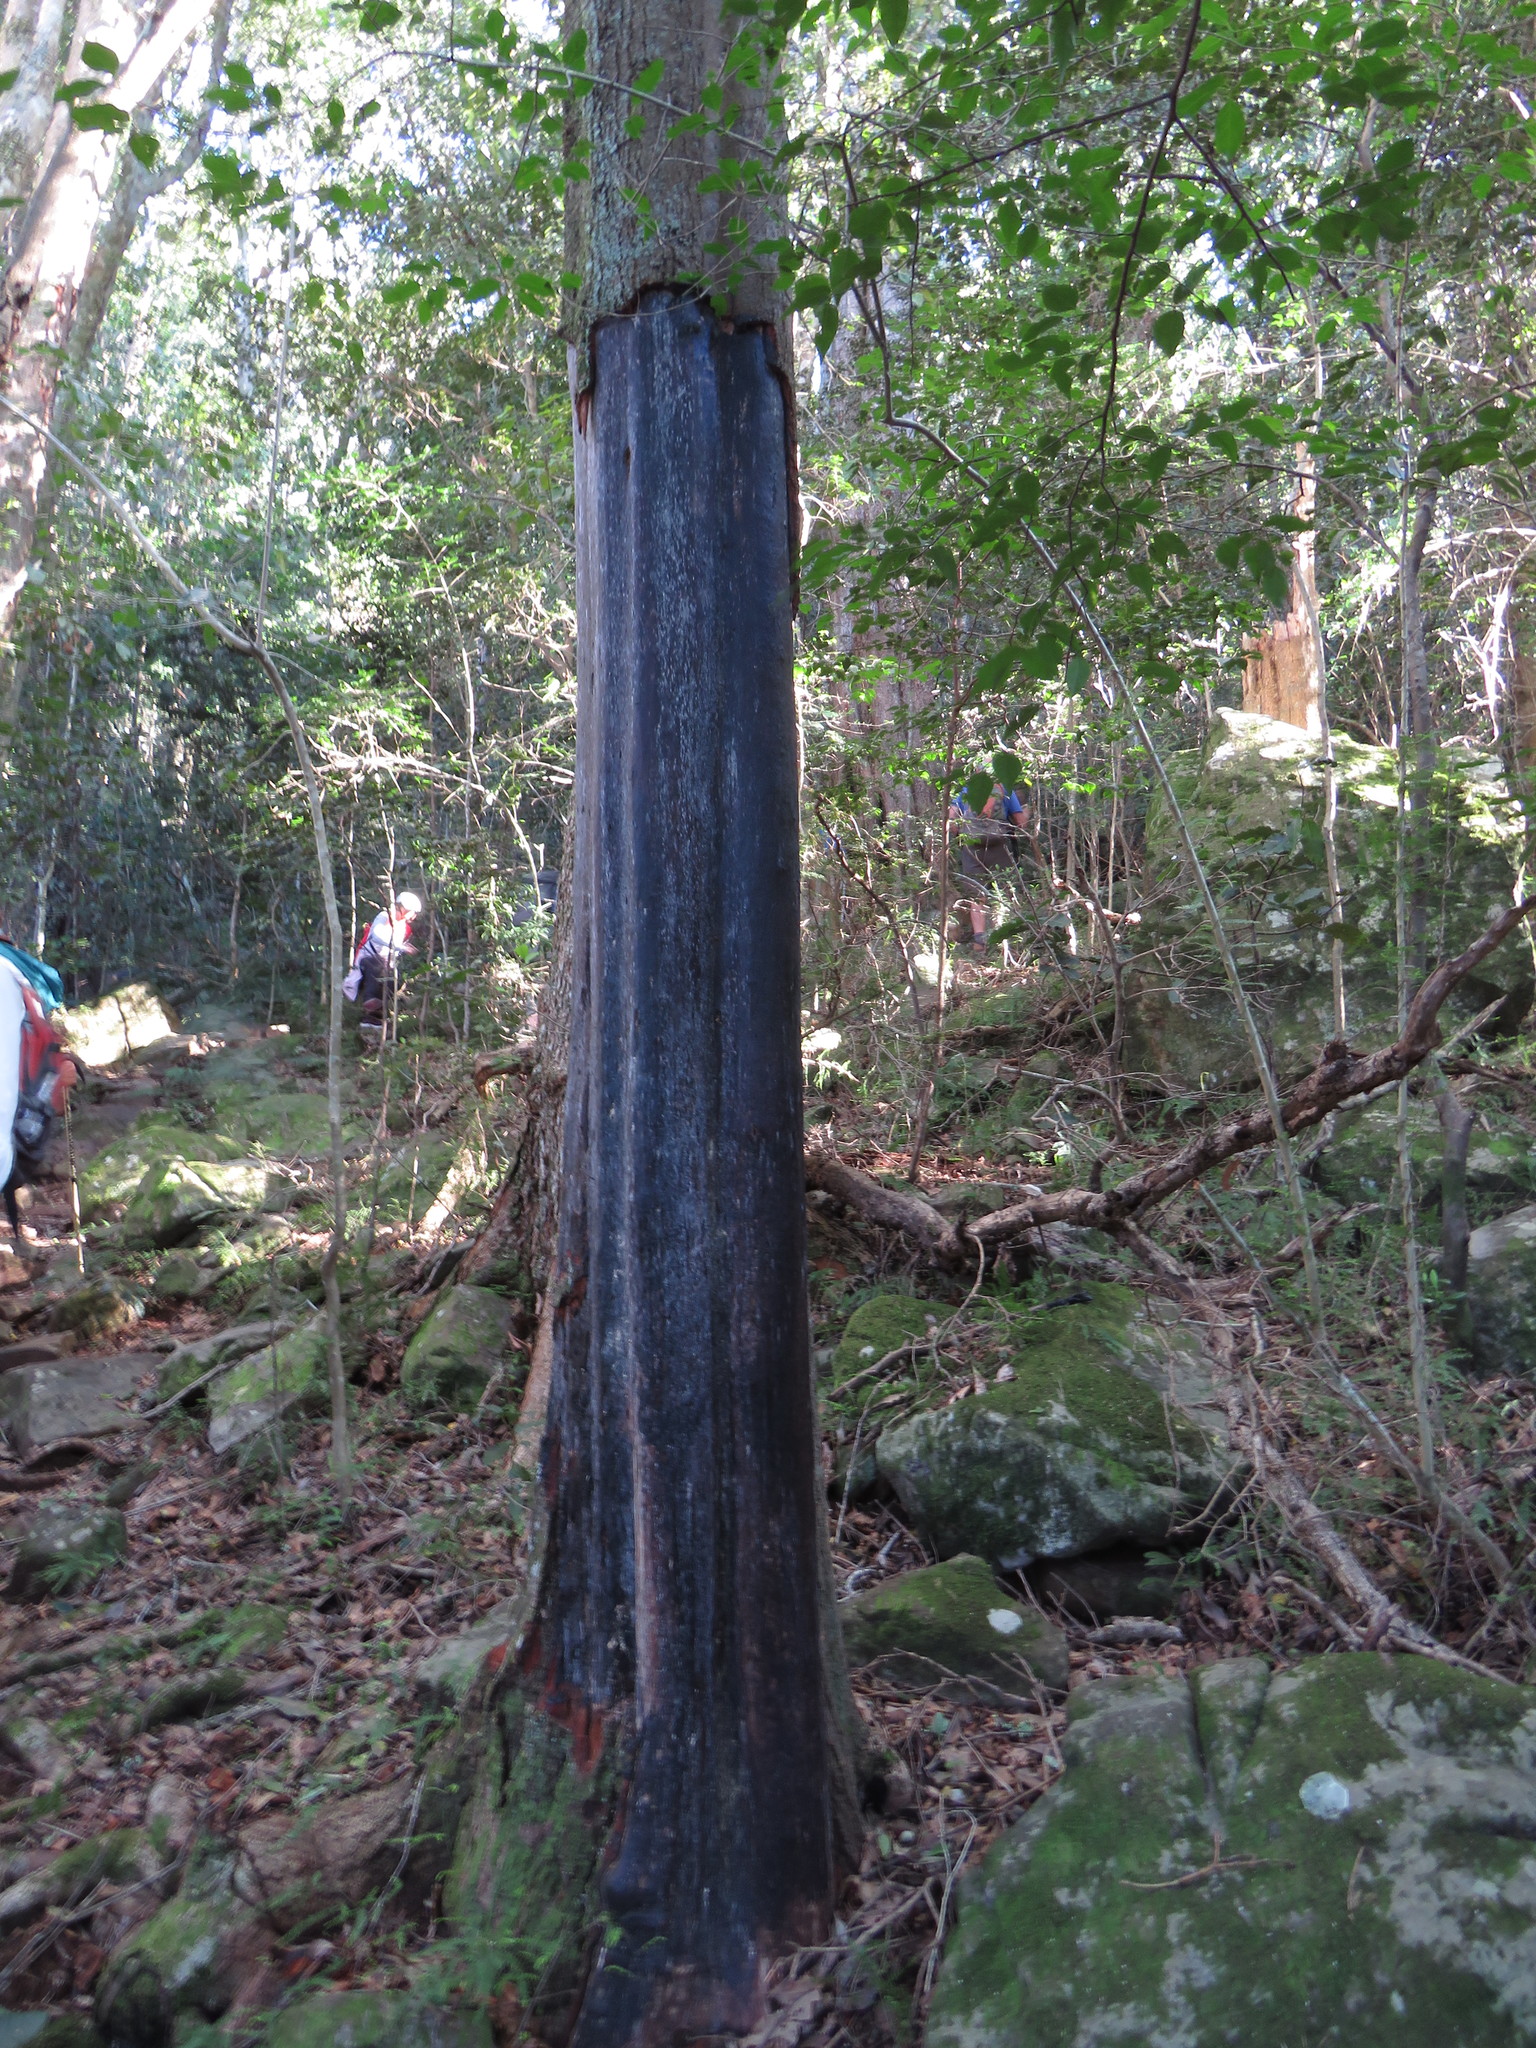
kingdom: Plantae
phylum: Tracheophyta
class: Magnoliopsida
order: Ericales
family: Primulaceae
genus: Myrsine
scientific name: Myrsine melanophloeos
